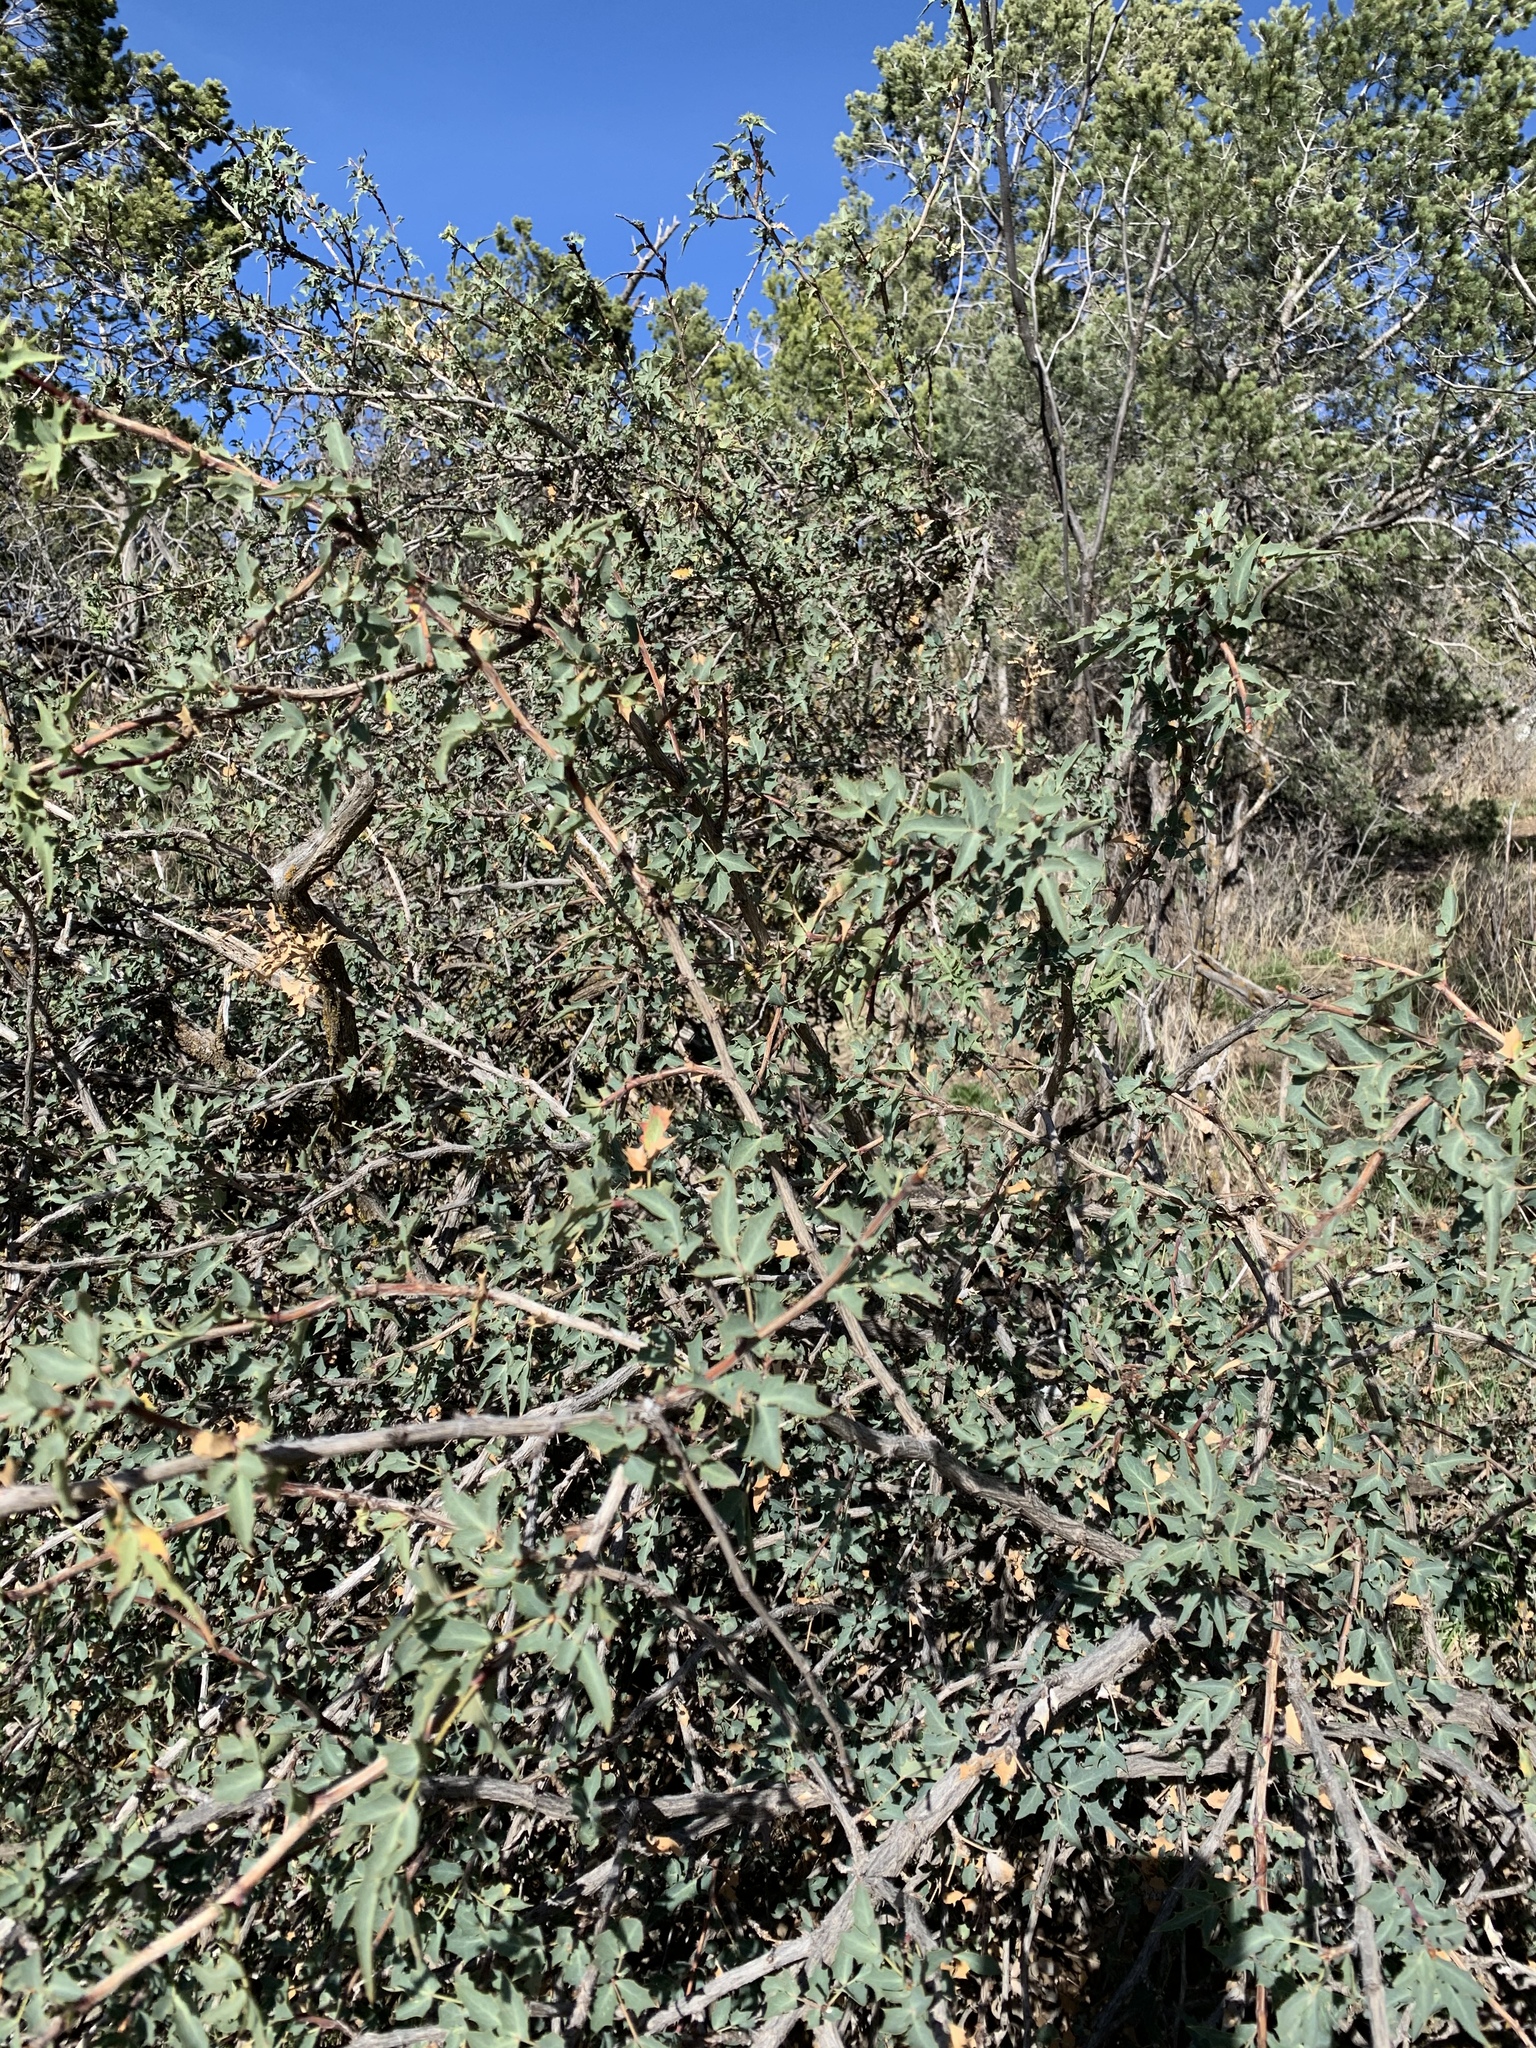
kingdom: Plantae
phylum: Tracheophyta
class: Magnoliopsida
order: Ranunculales
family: Berberidaceae
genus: Alloberberis
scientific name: Alloberberis haematocarpa
